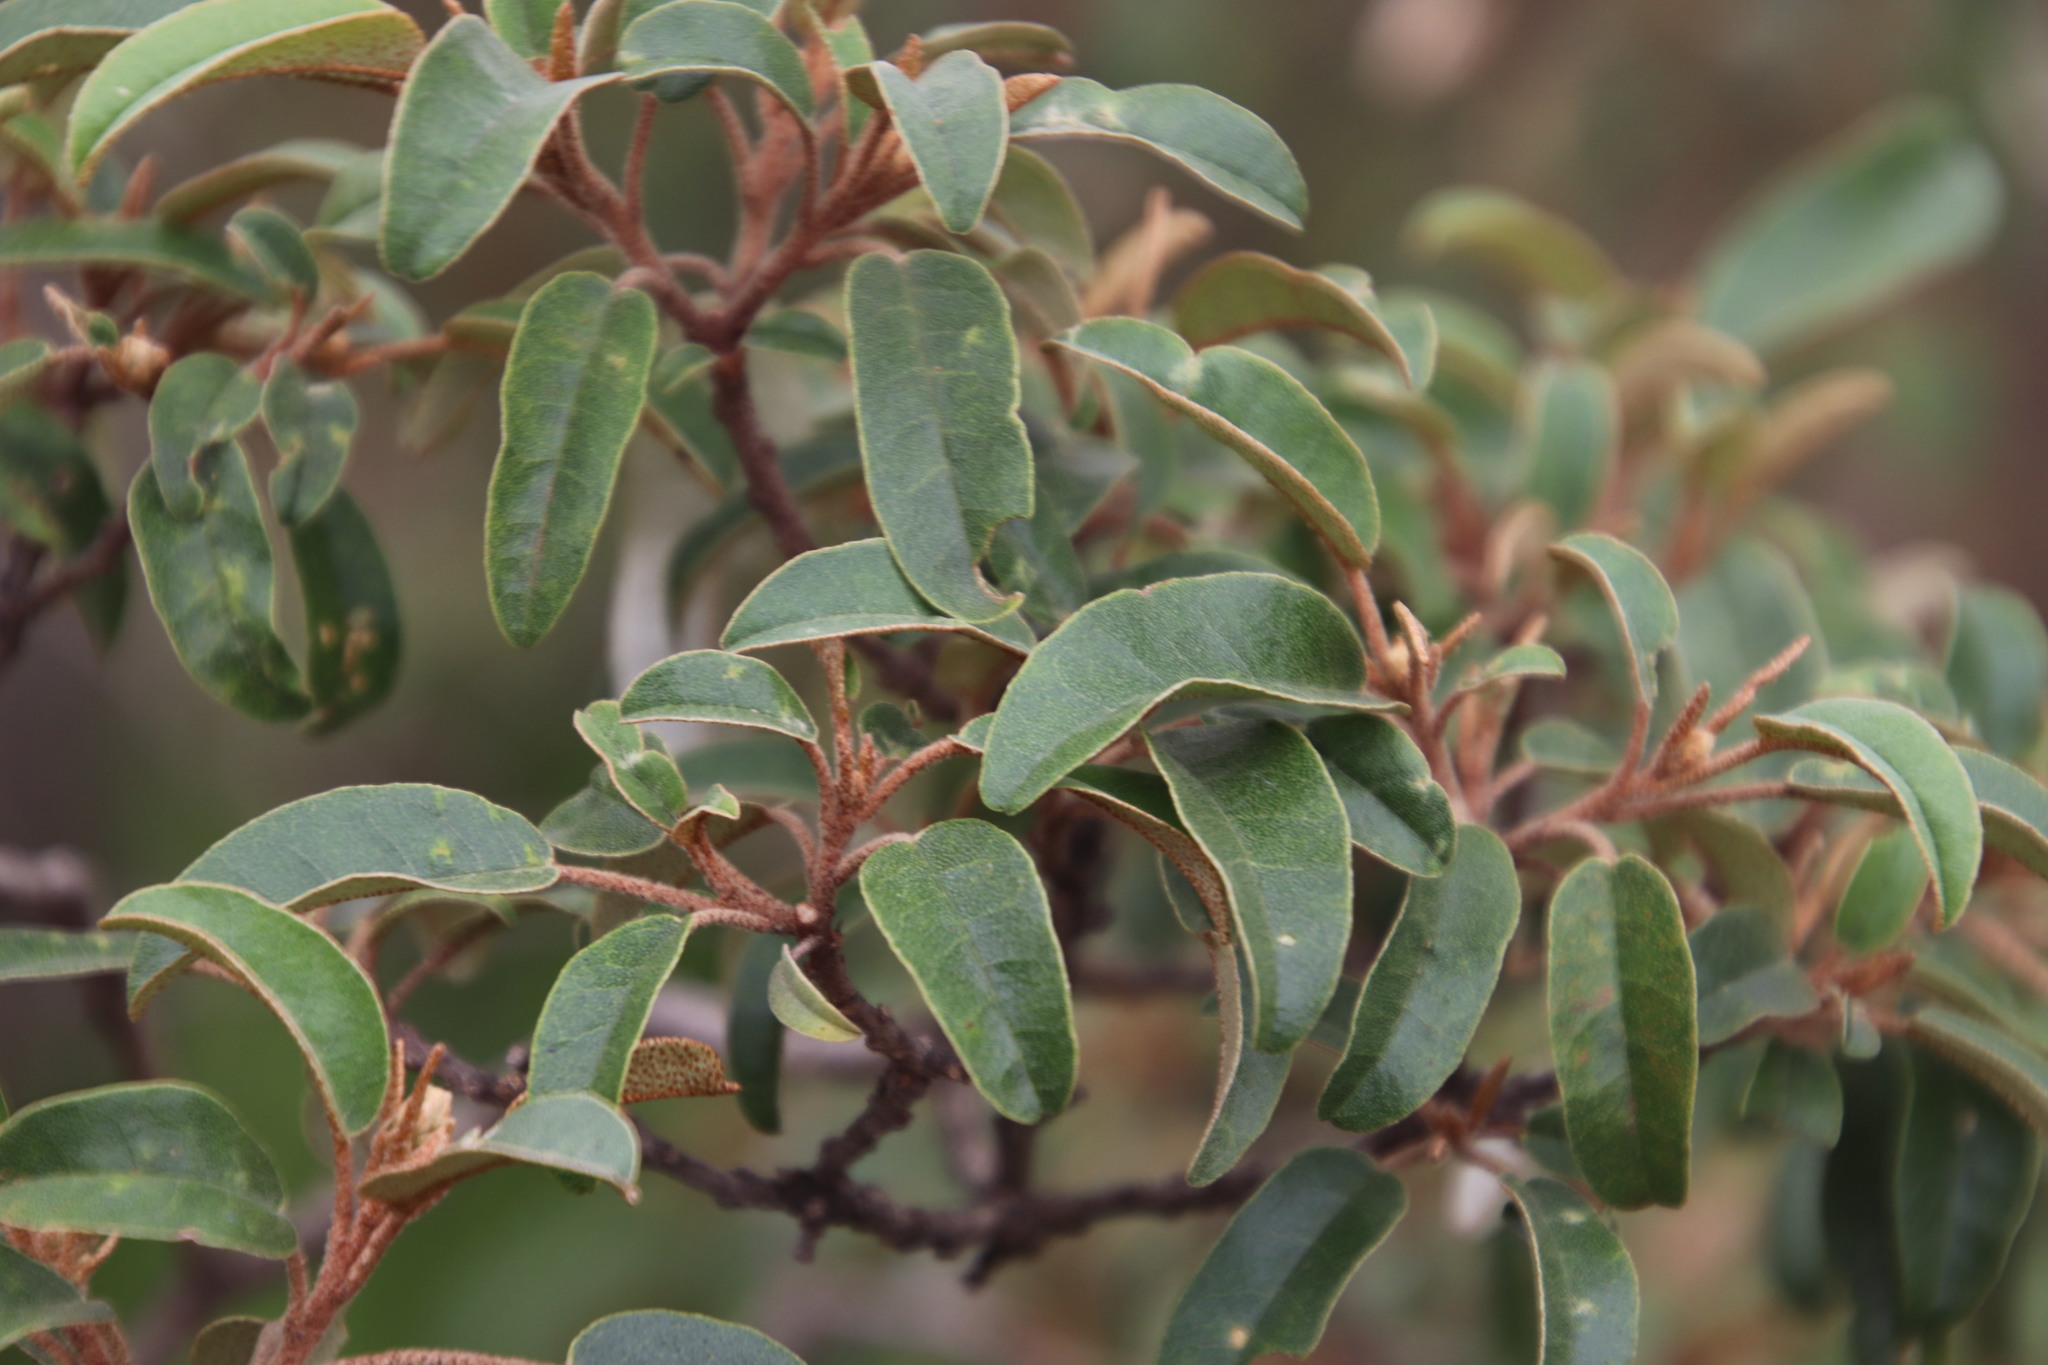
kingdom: Plantae
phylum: Tracheophyta
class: Magnoliopsida
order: Malpighiales
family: Euphorbiaceae
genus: Croton
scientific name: Croton gratissimus
